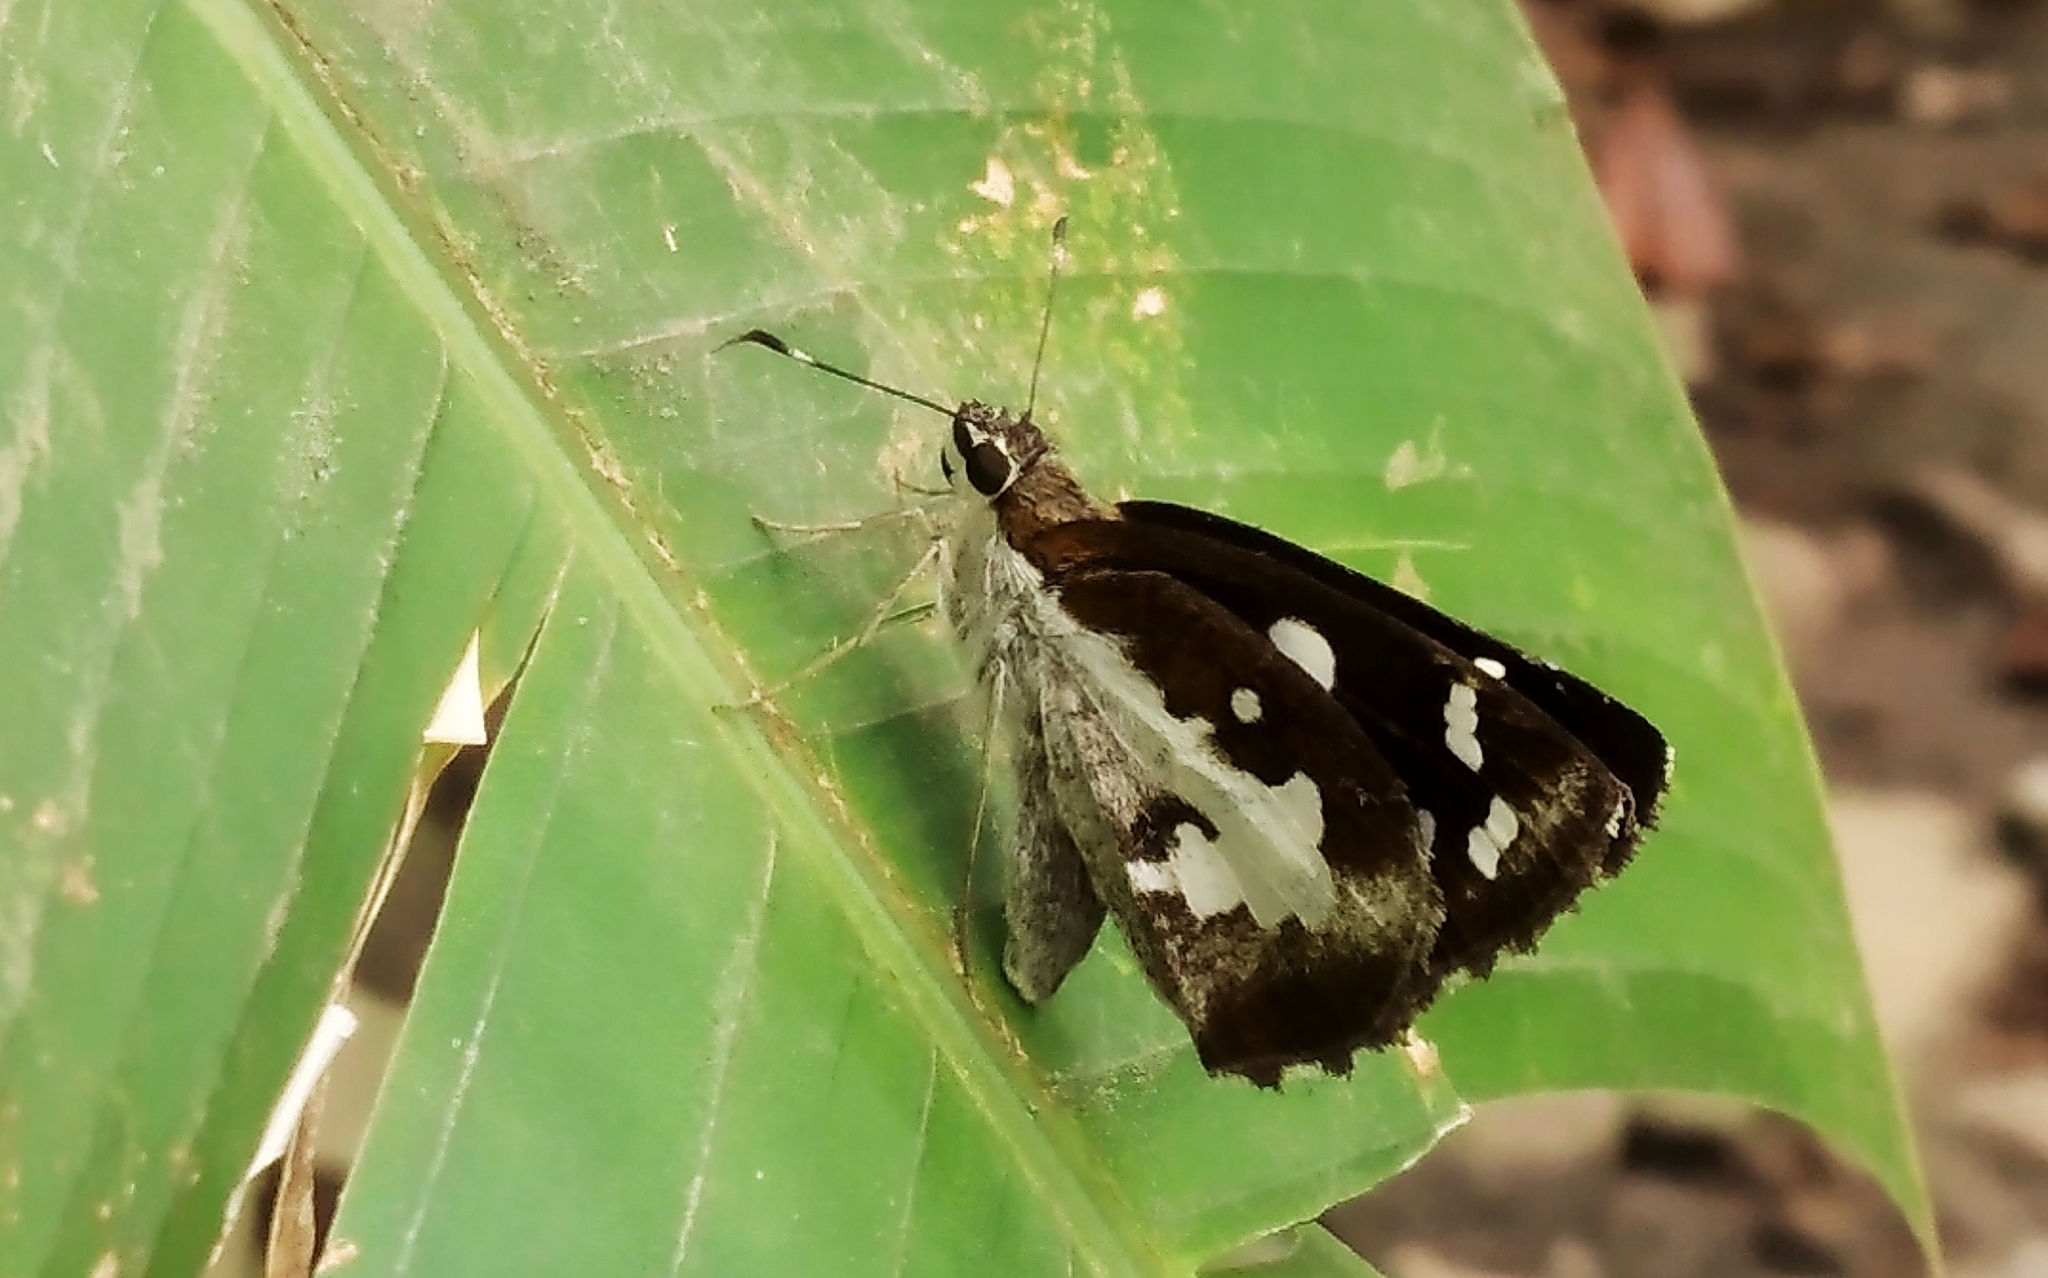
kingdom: Animalia
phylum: Arthropoda
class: Insecta
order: Lepidoptera
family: Hesperiidae
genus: Udaspes
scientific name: Udaspes folus
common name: Grass demon
